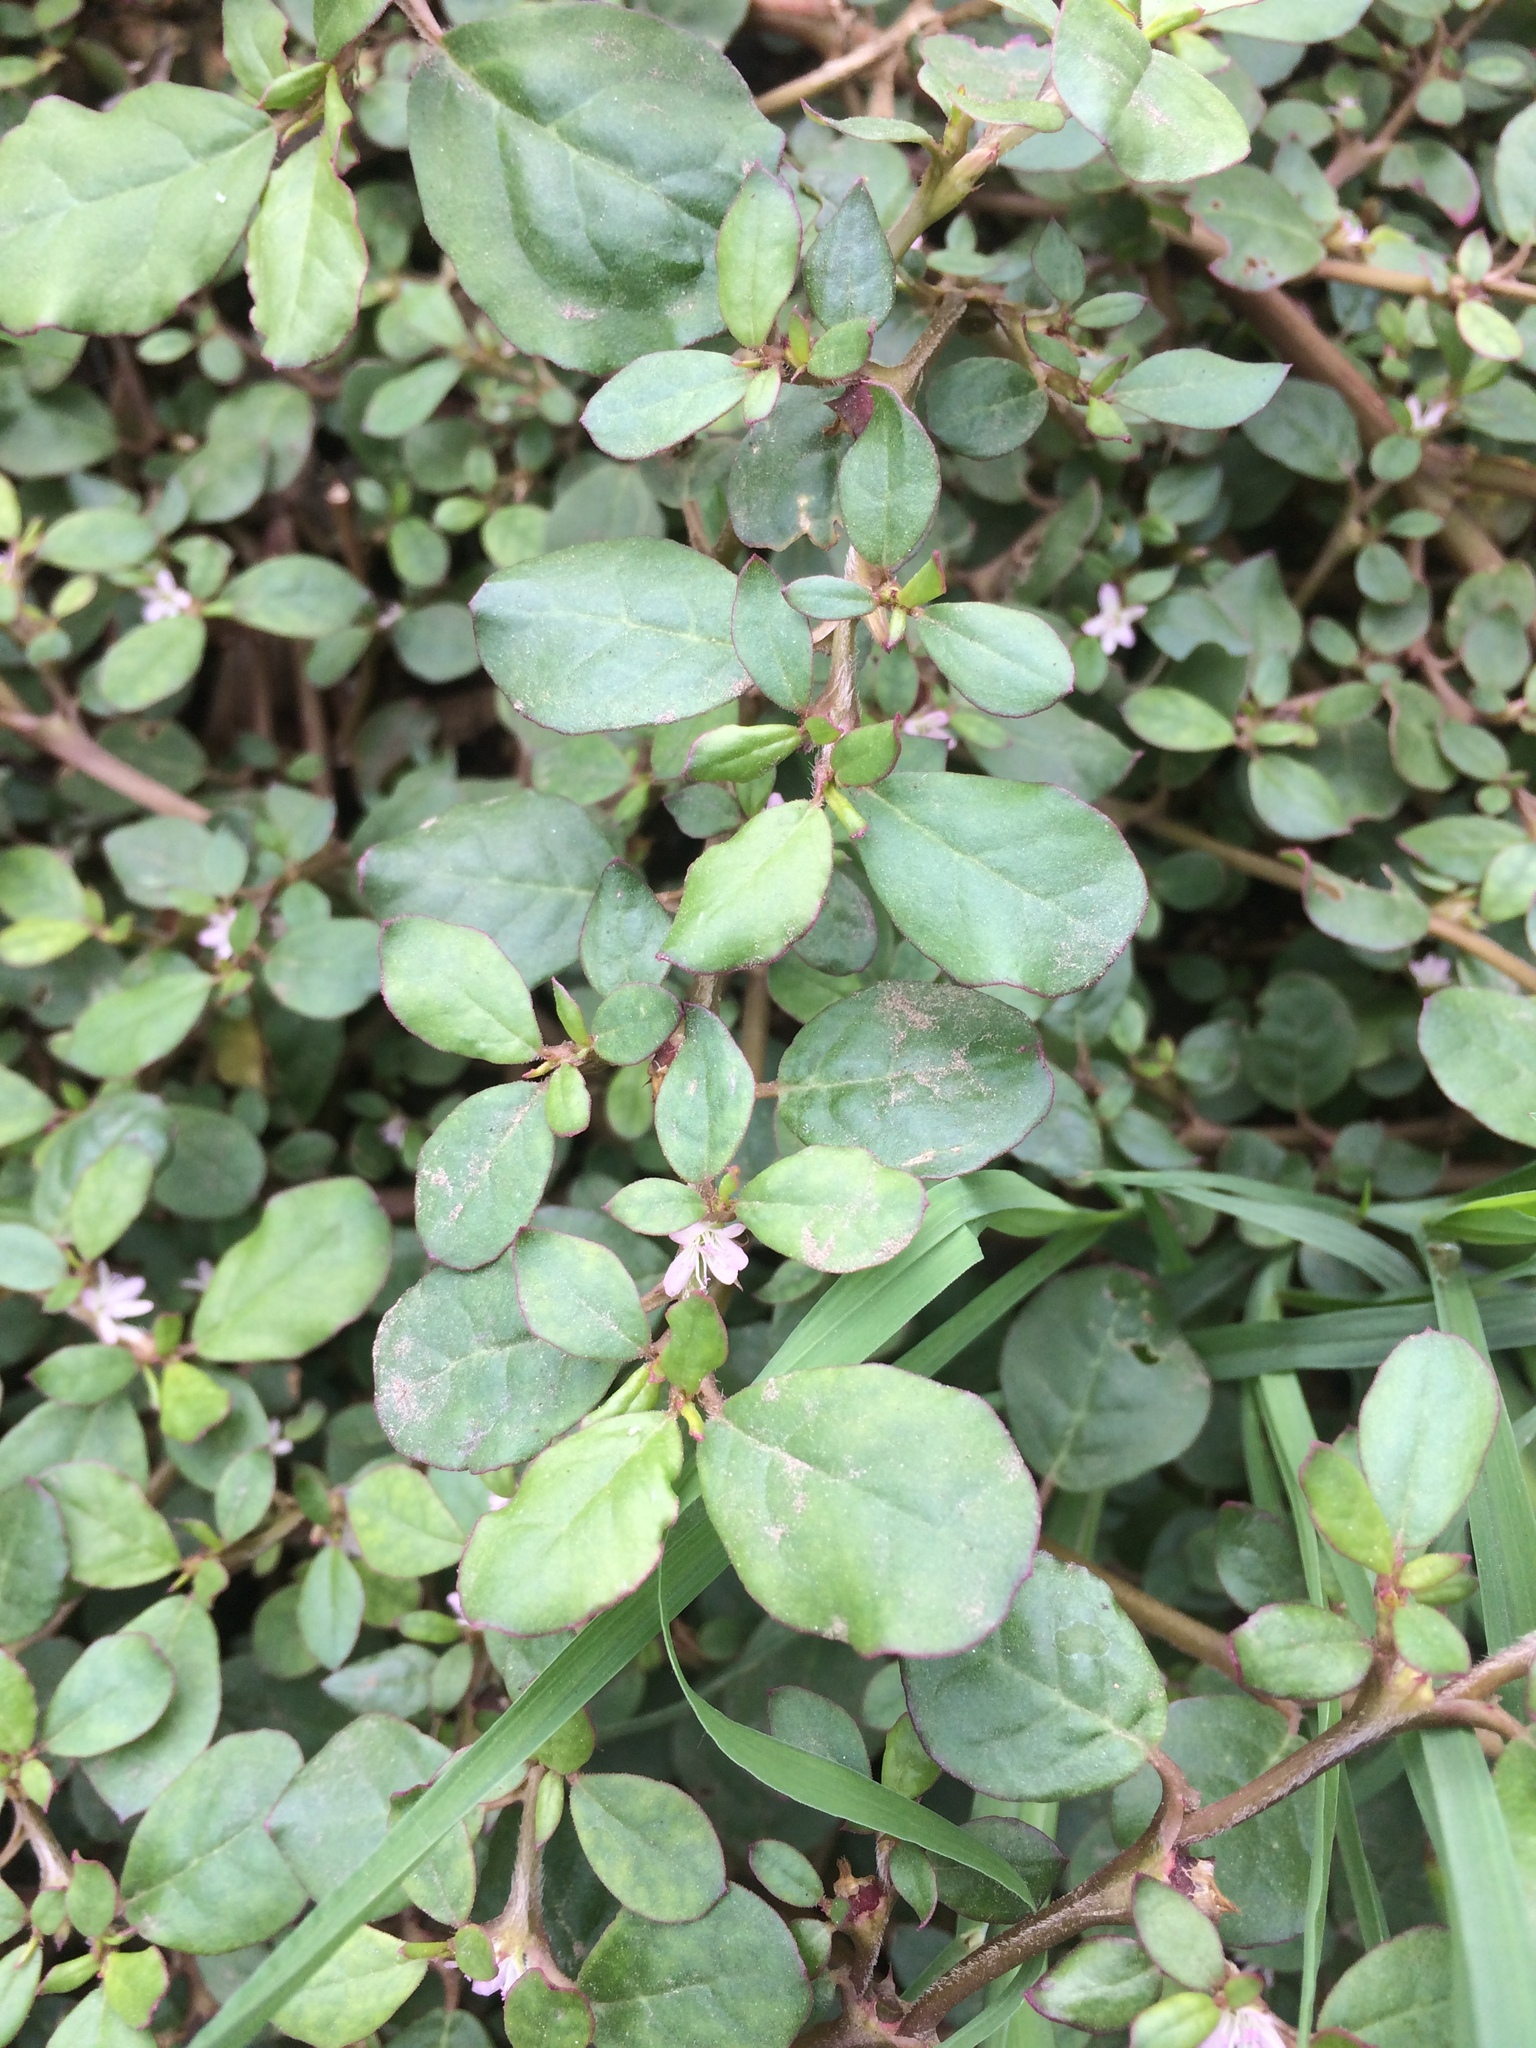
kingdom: Plantae
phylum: Tracheophyta
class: Magnoliopsida
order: Caryophyllales
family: Aizoaceae
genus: Trianthema
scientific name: Trianthema portulacastrum
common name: Desert horsepurslane
